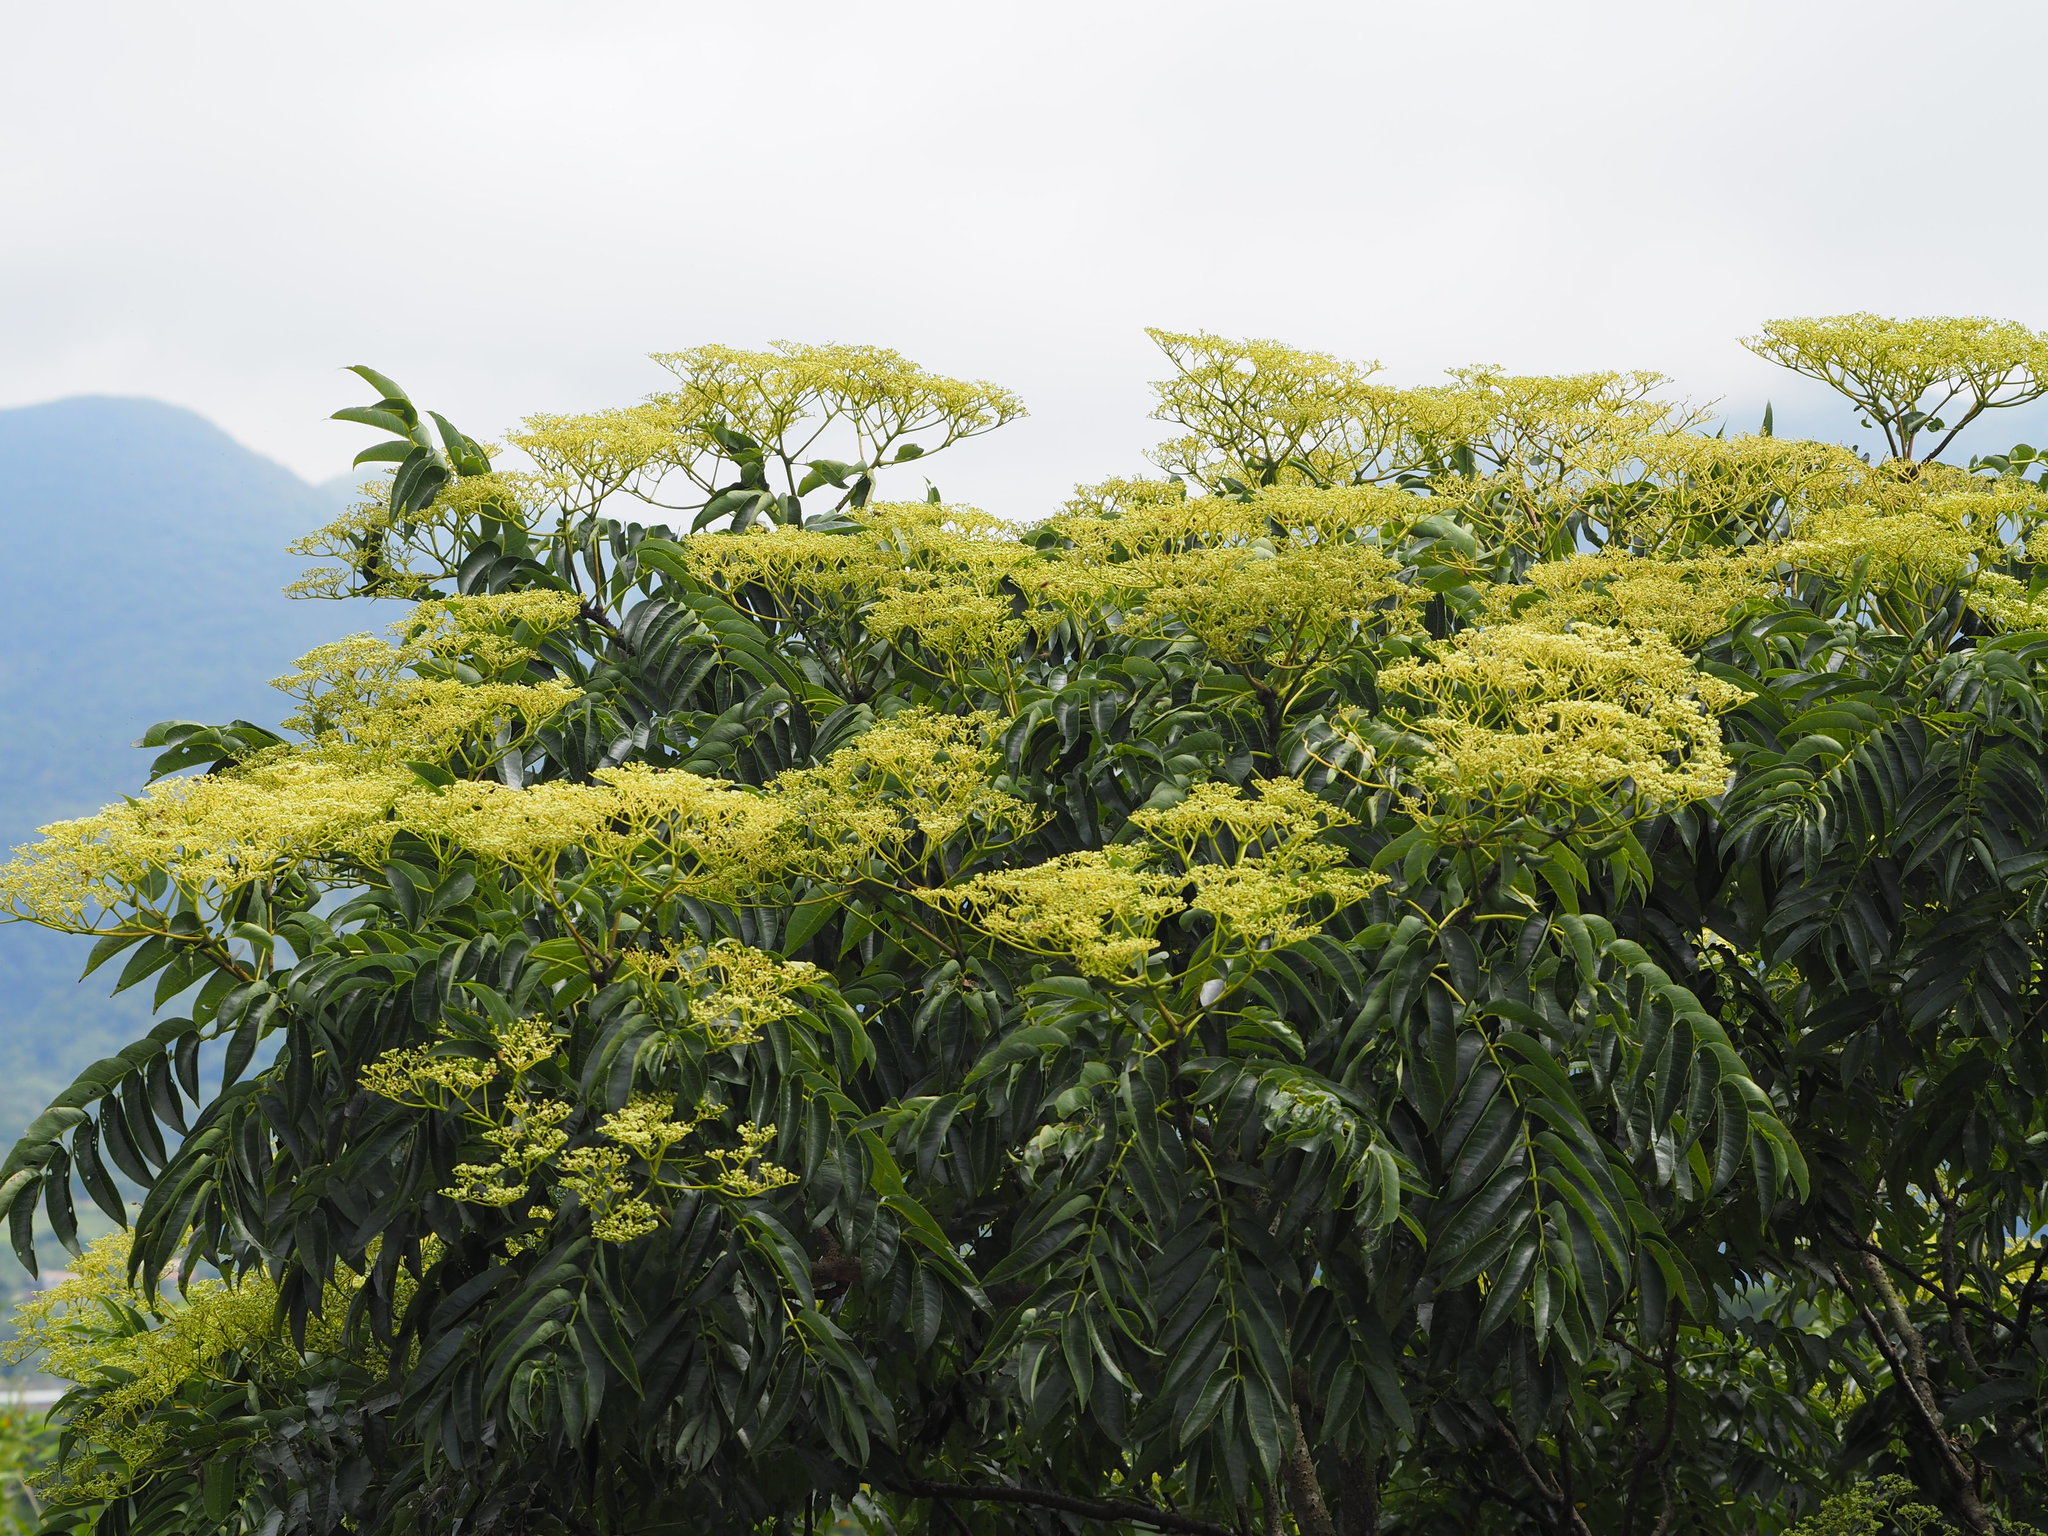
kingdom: Plantae
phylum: Tracheophyta
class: Magnoliopsida
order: Sapindales
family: Rutaceae
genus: Zanthoxylum
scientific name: Zanthoxylum ailanthoides
